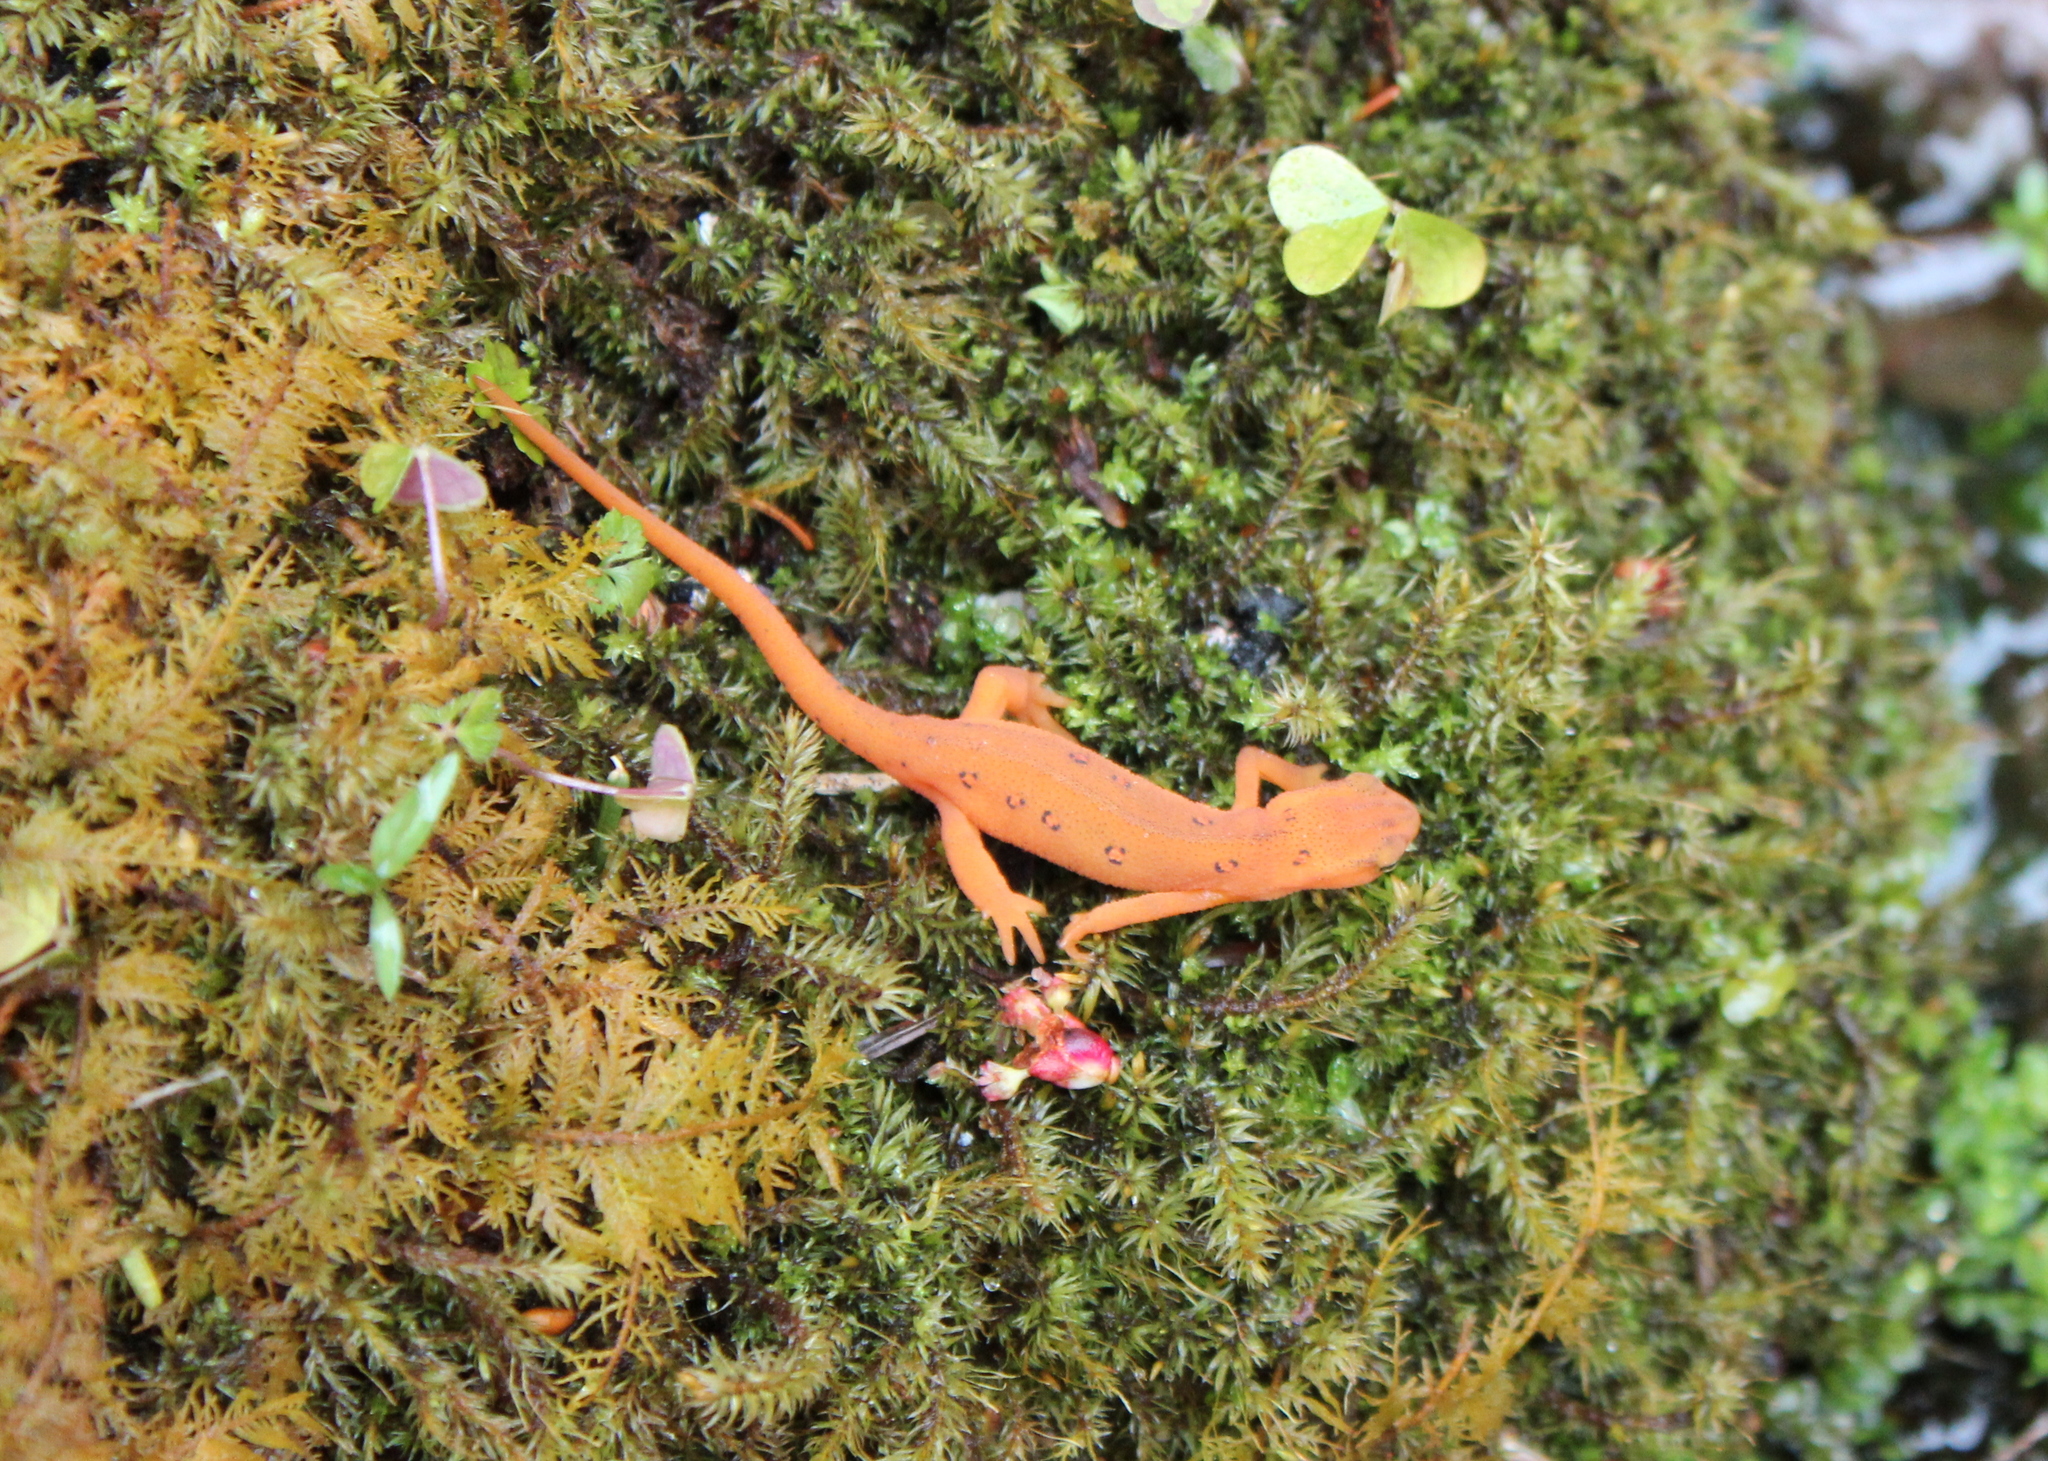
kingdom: Animalia
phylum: Chordata
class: Amphibia
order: Caudata
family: Salamandridae
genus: Notophthalmus
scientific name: Notophthalmus viridescens
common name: Eastern newt
